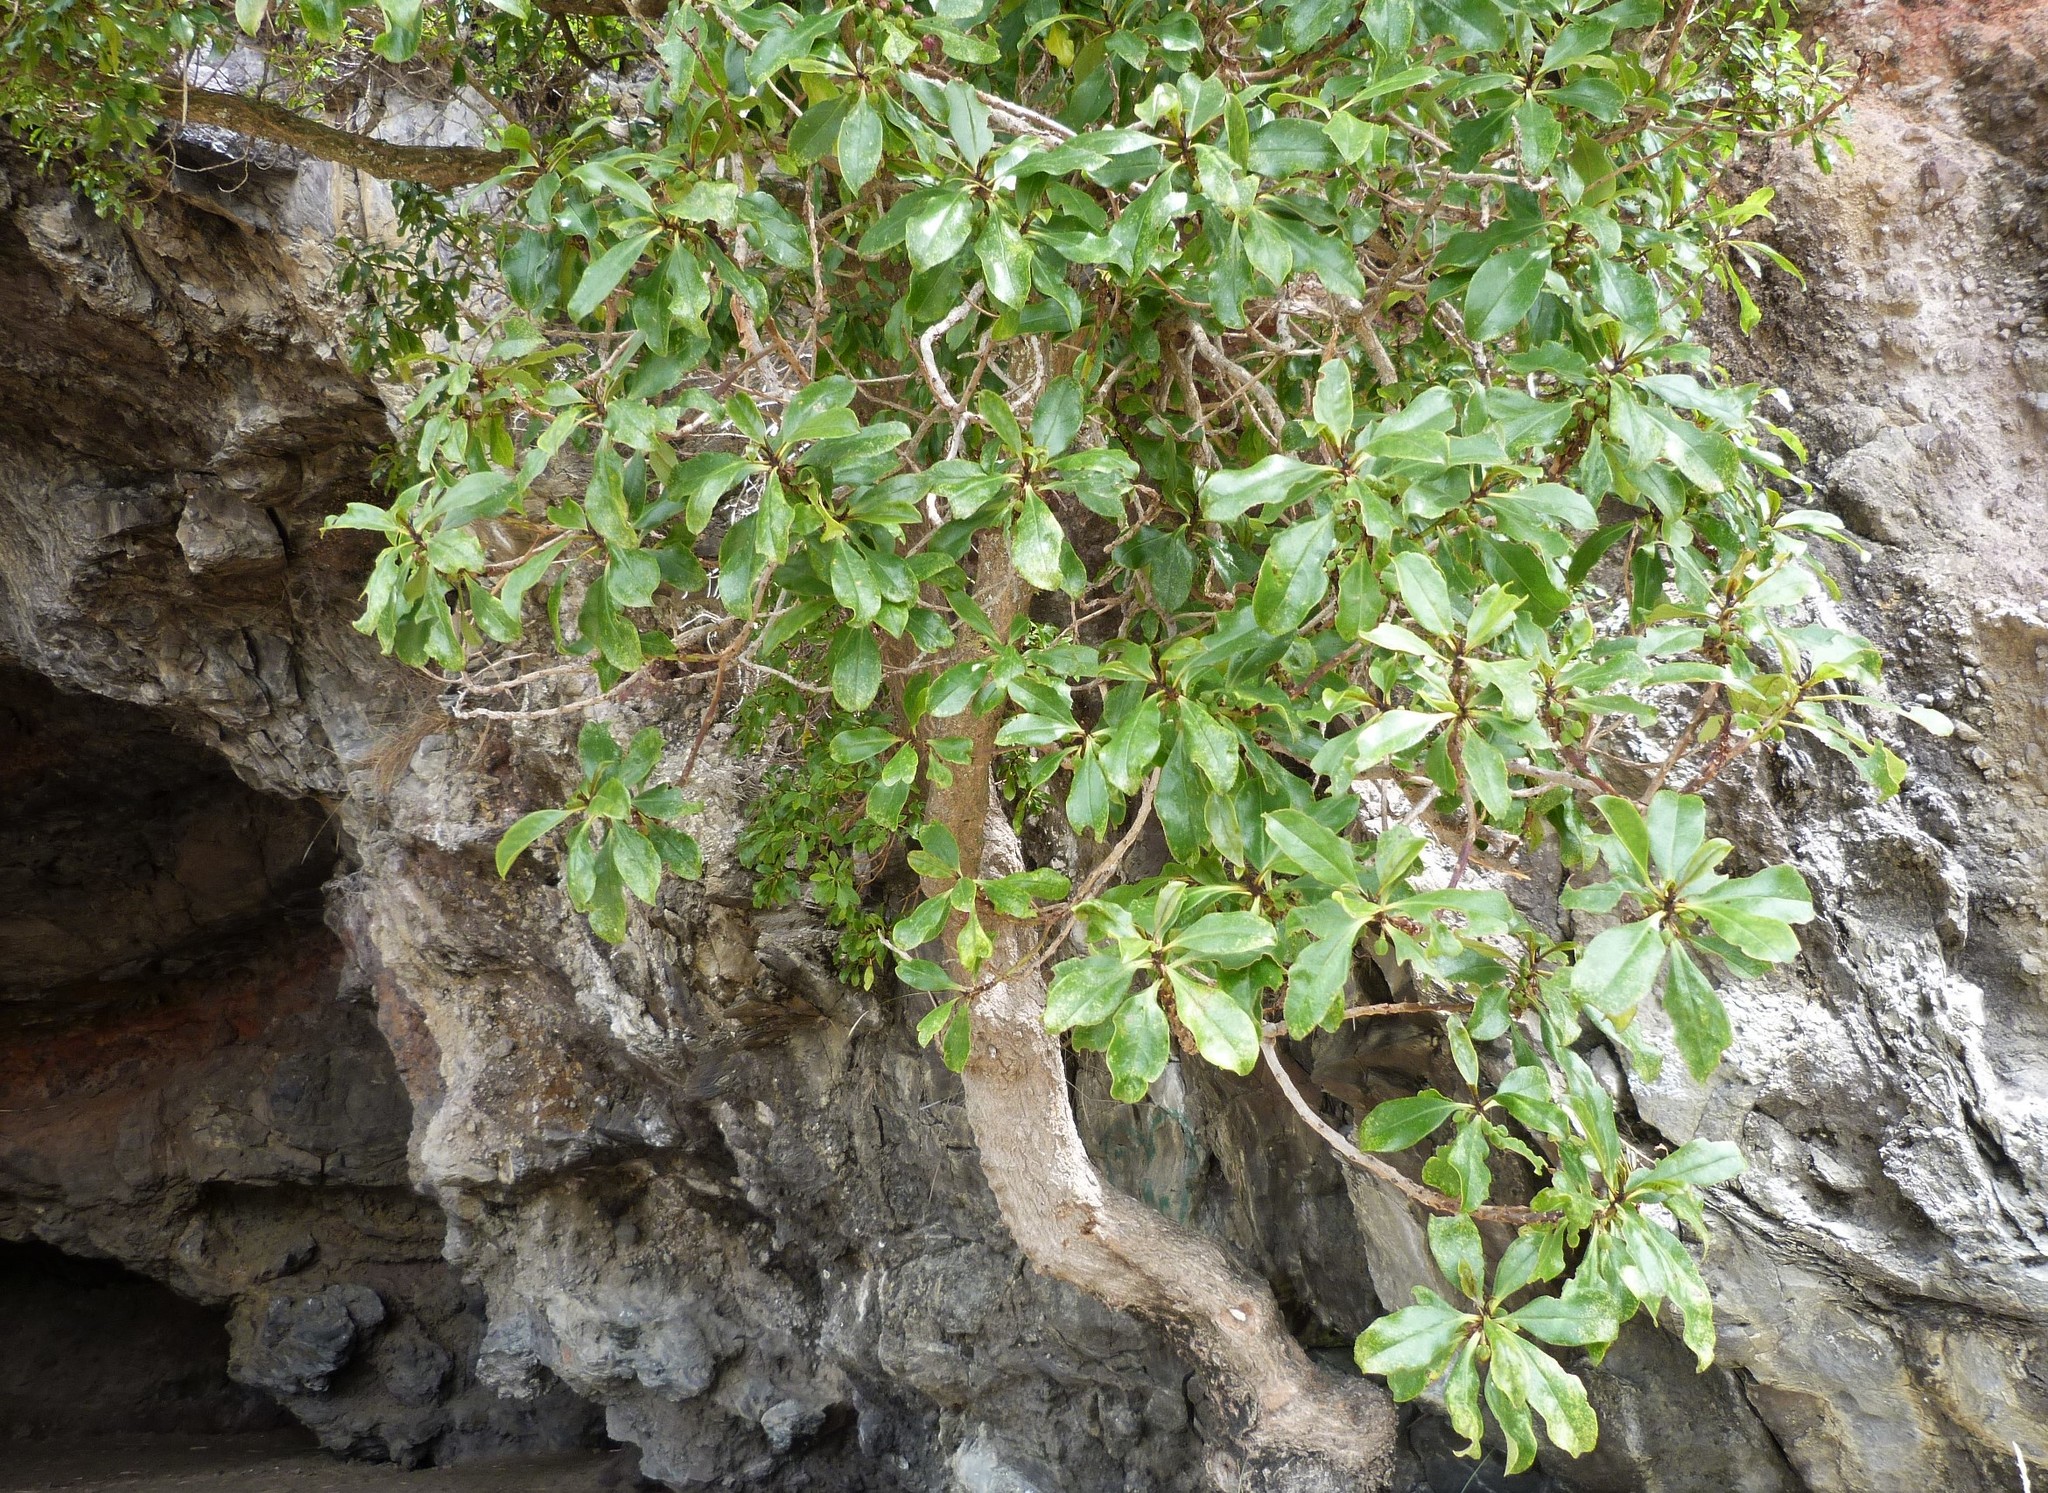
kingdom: Plantae
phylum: Tracheophyta
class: Magnoliopsida
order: Lamiales
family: Scrophulariaceae
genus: Myoporum
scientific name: Myoporum laetum
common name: Ngaio tree
